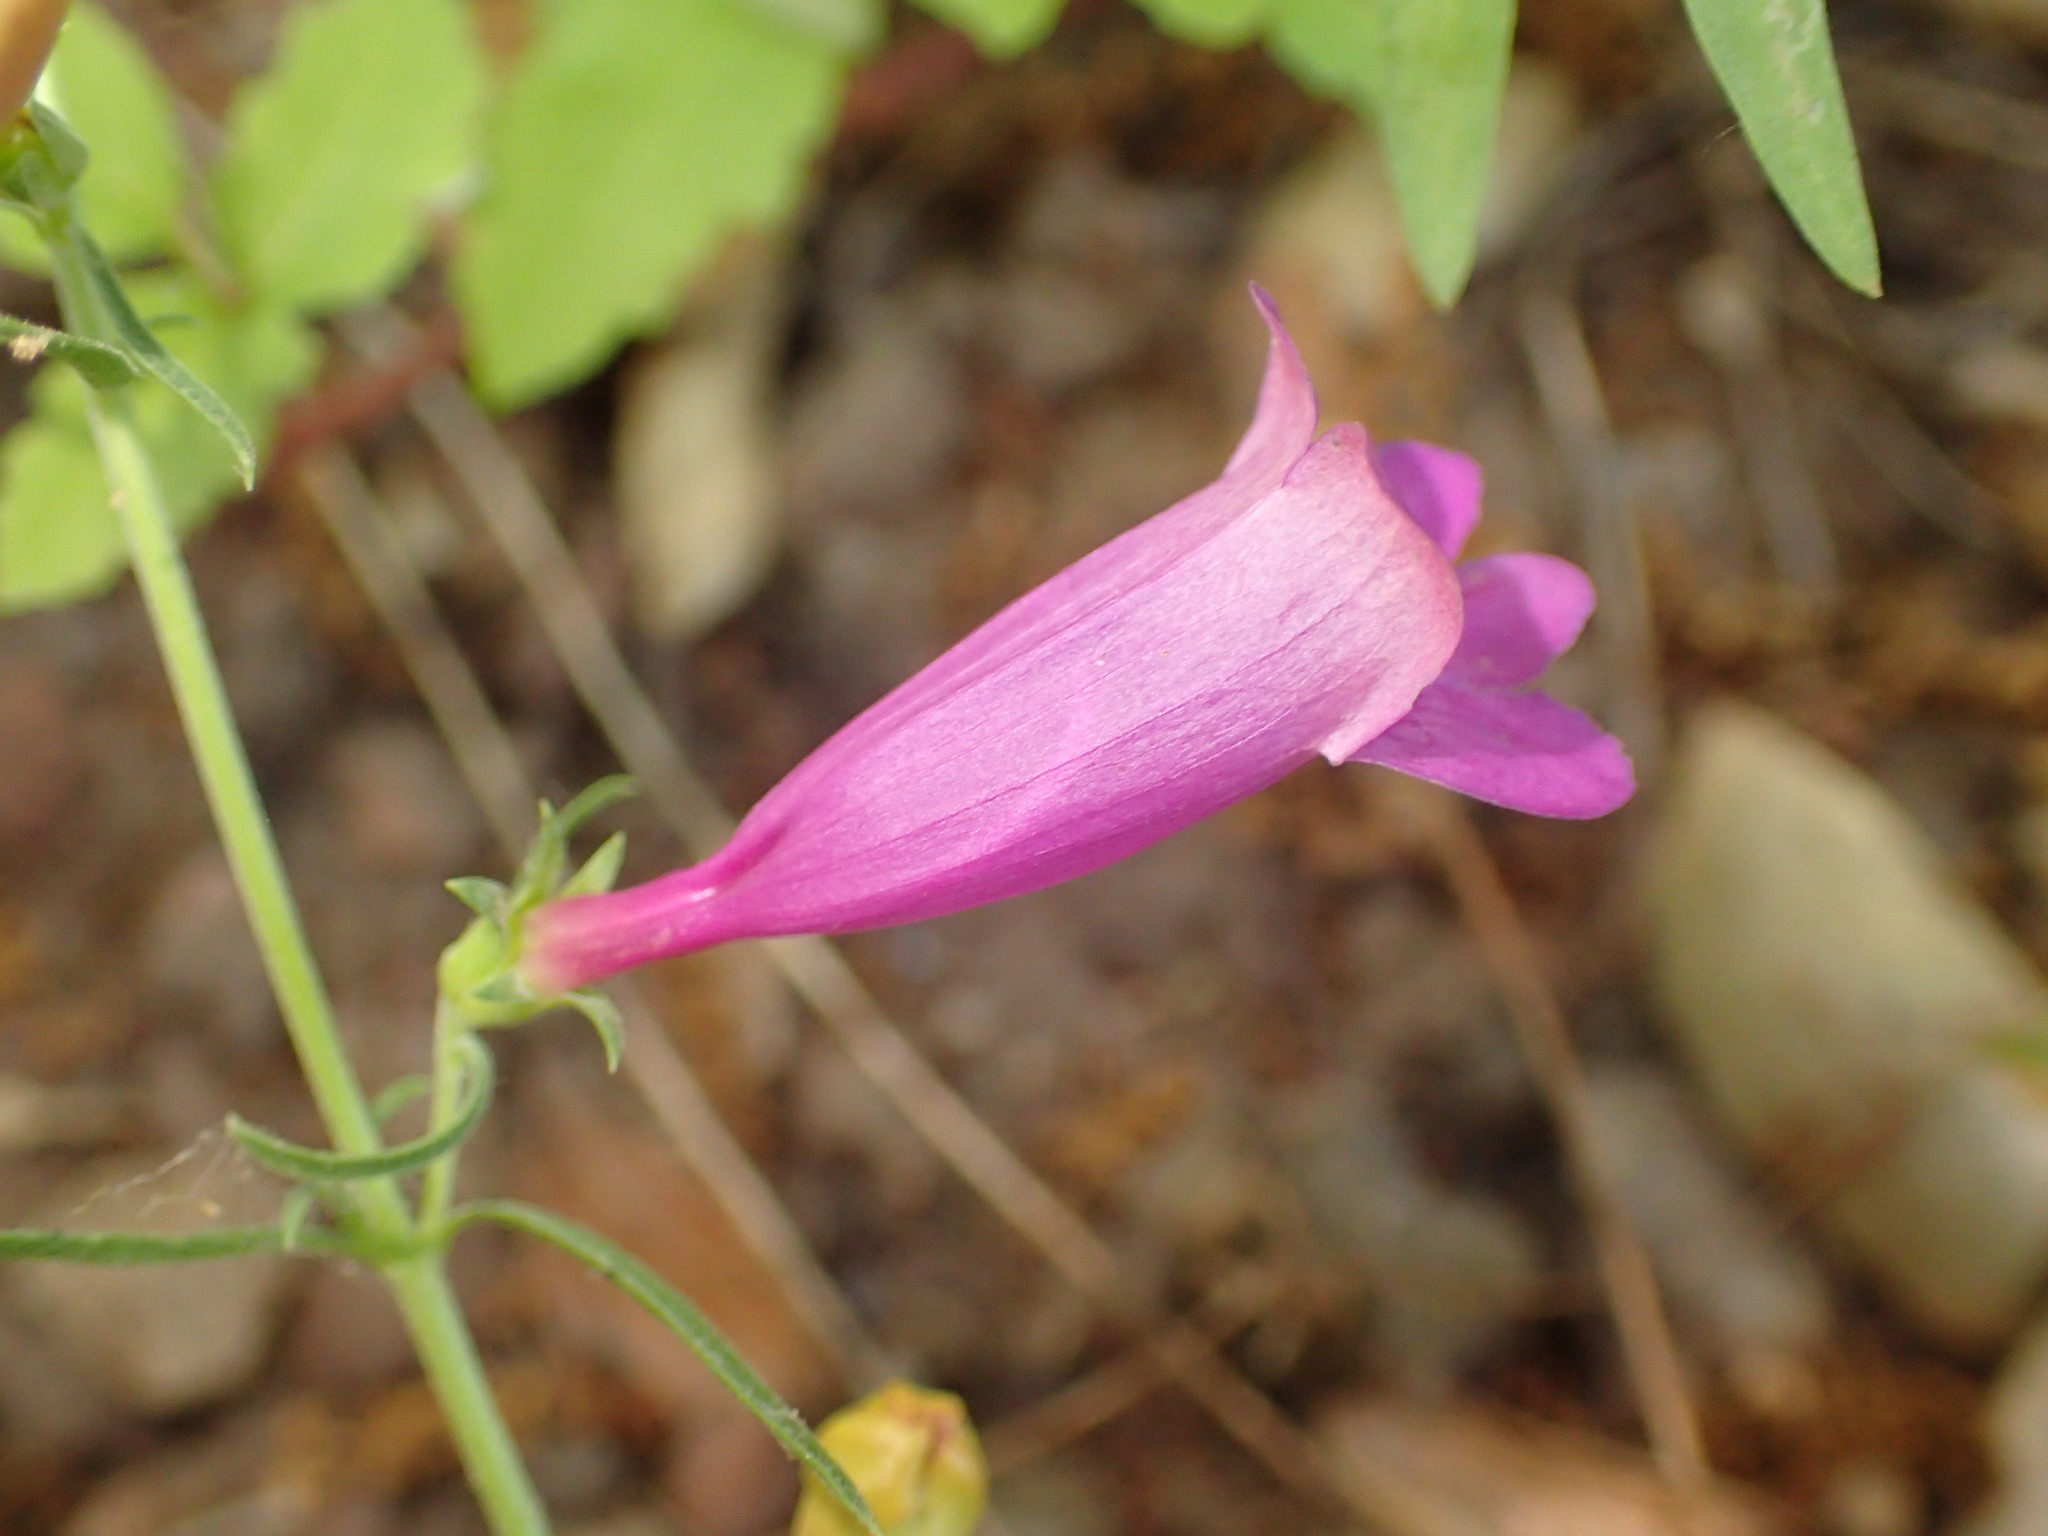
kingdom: Plantae
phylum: Tracheophyta
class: Magnoliopsida
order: Lamiales
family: Plantaginaceae
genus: Penstemon
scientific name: Penstemon heterophyllus
